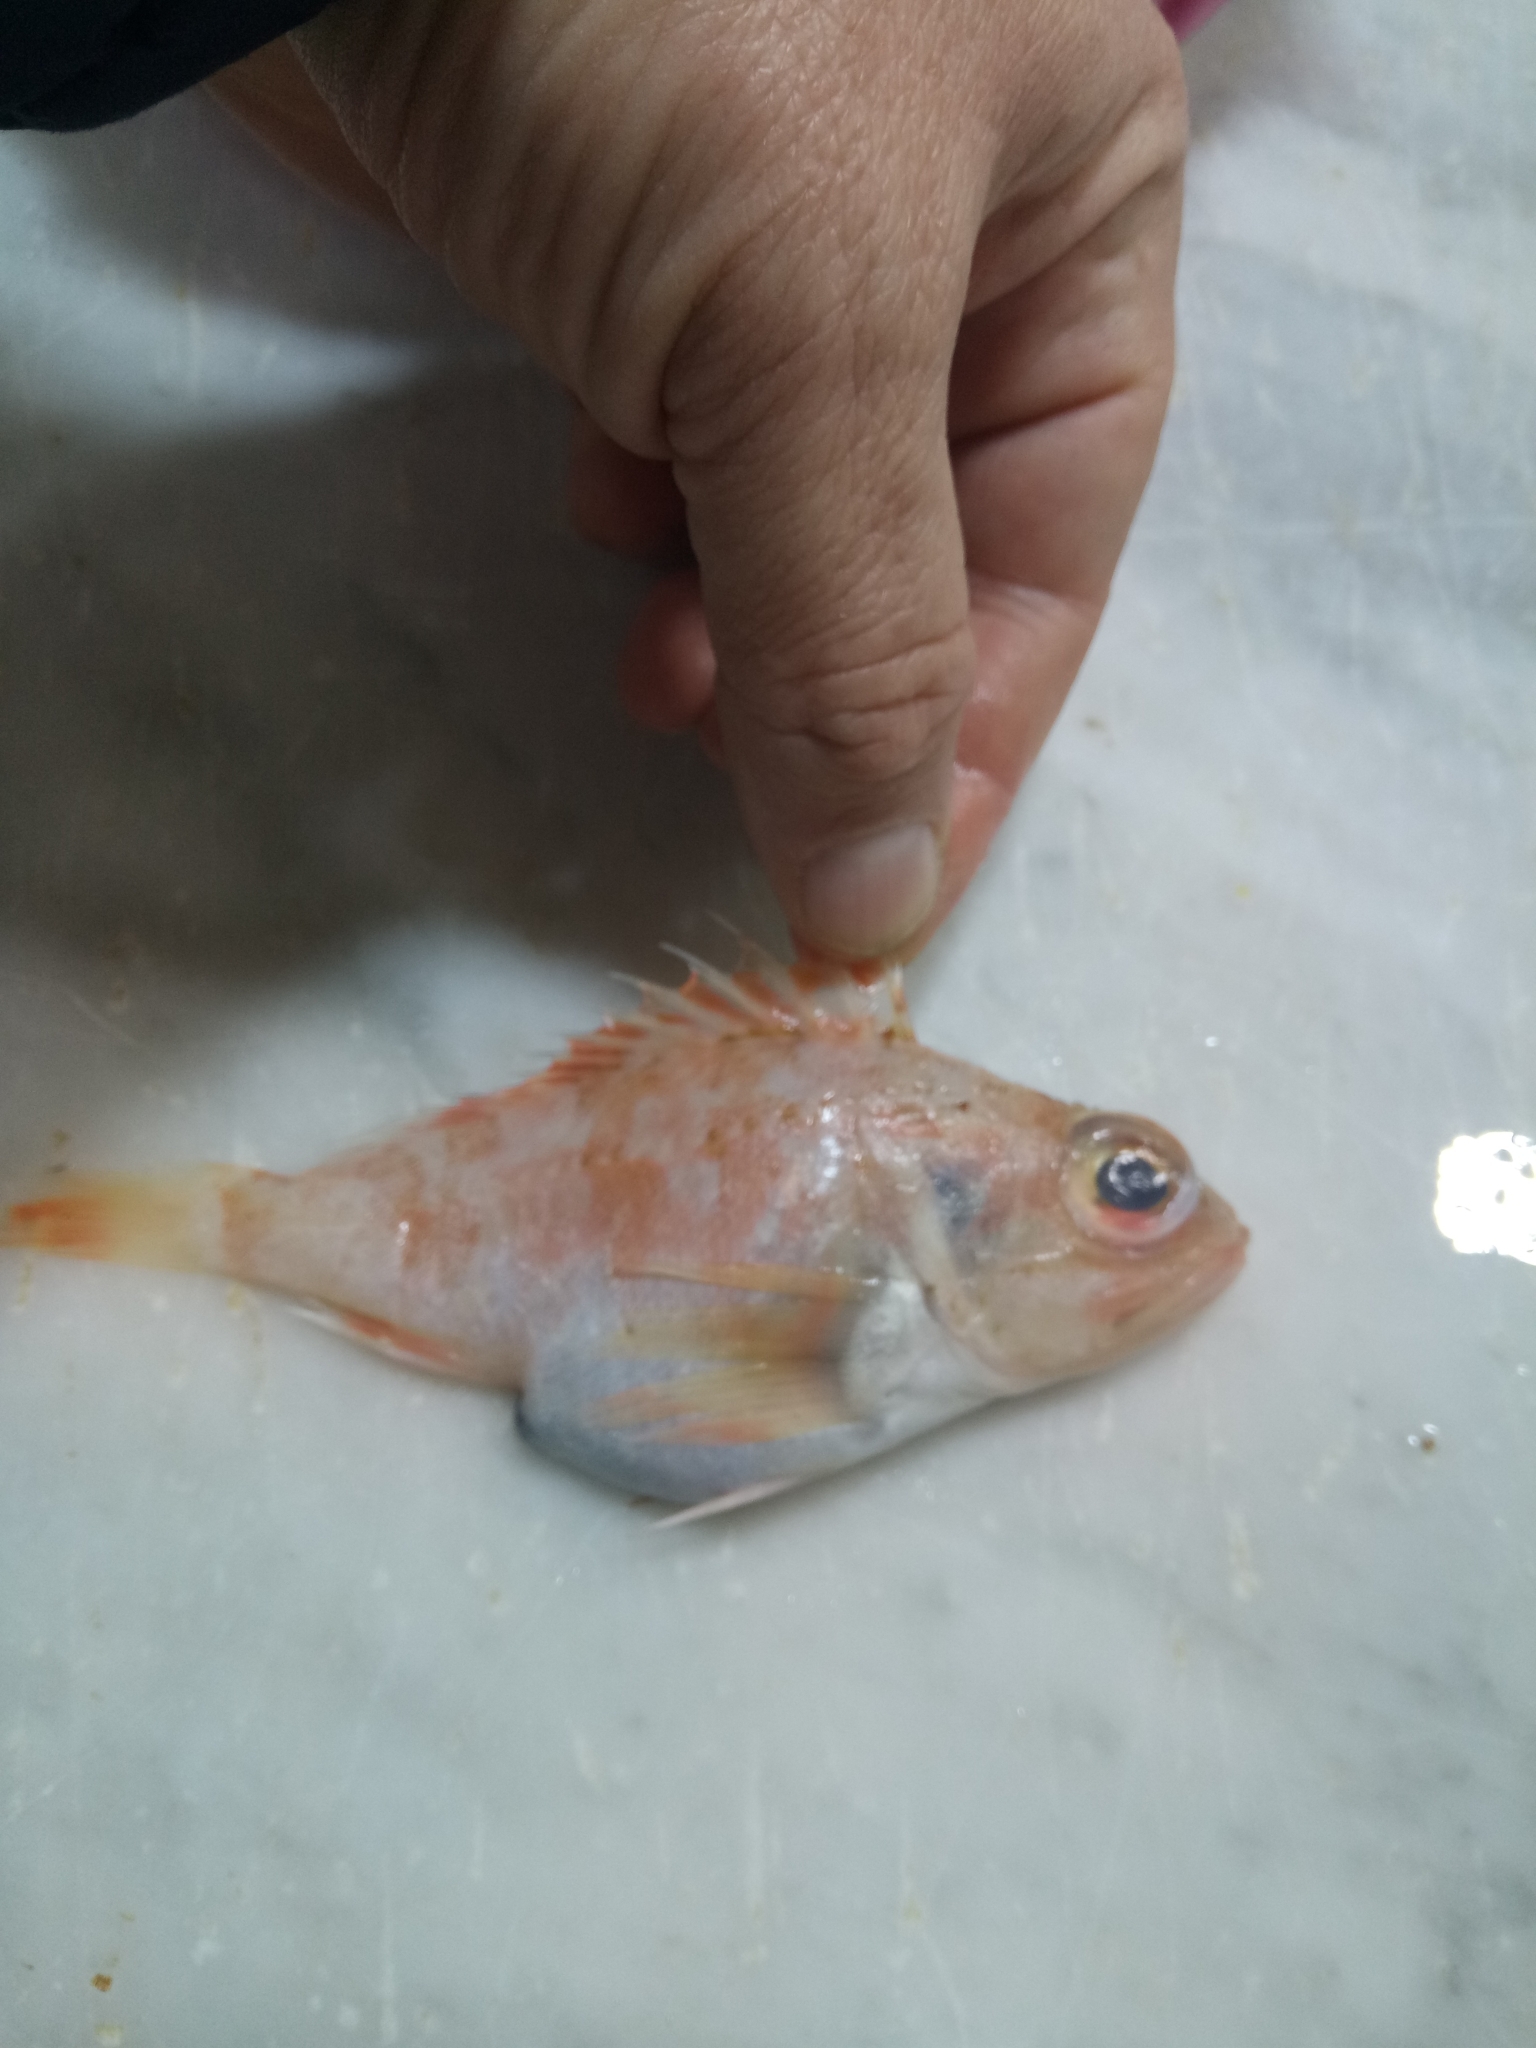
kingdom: Animalia
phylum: Chordata
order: Scorpaeniformes
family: Sebastidae
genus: Helicolenus
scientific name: Helicolenus dactylopterus
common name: Blackbelly rosefish
